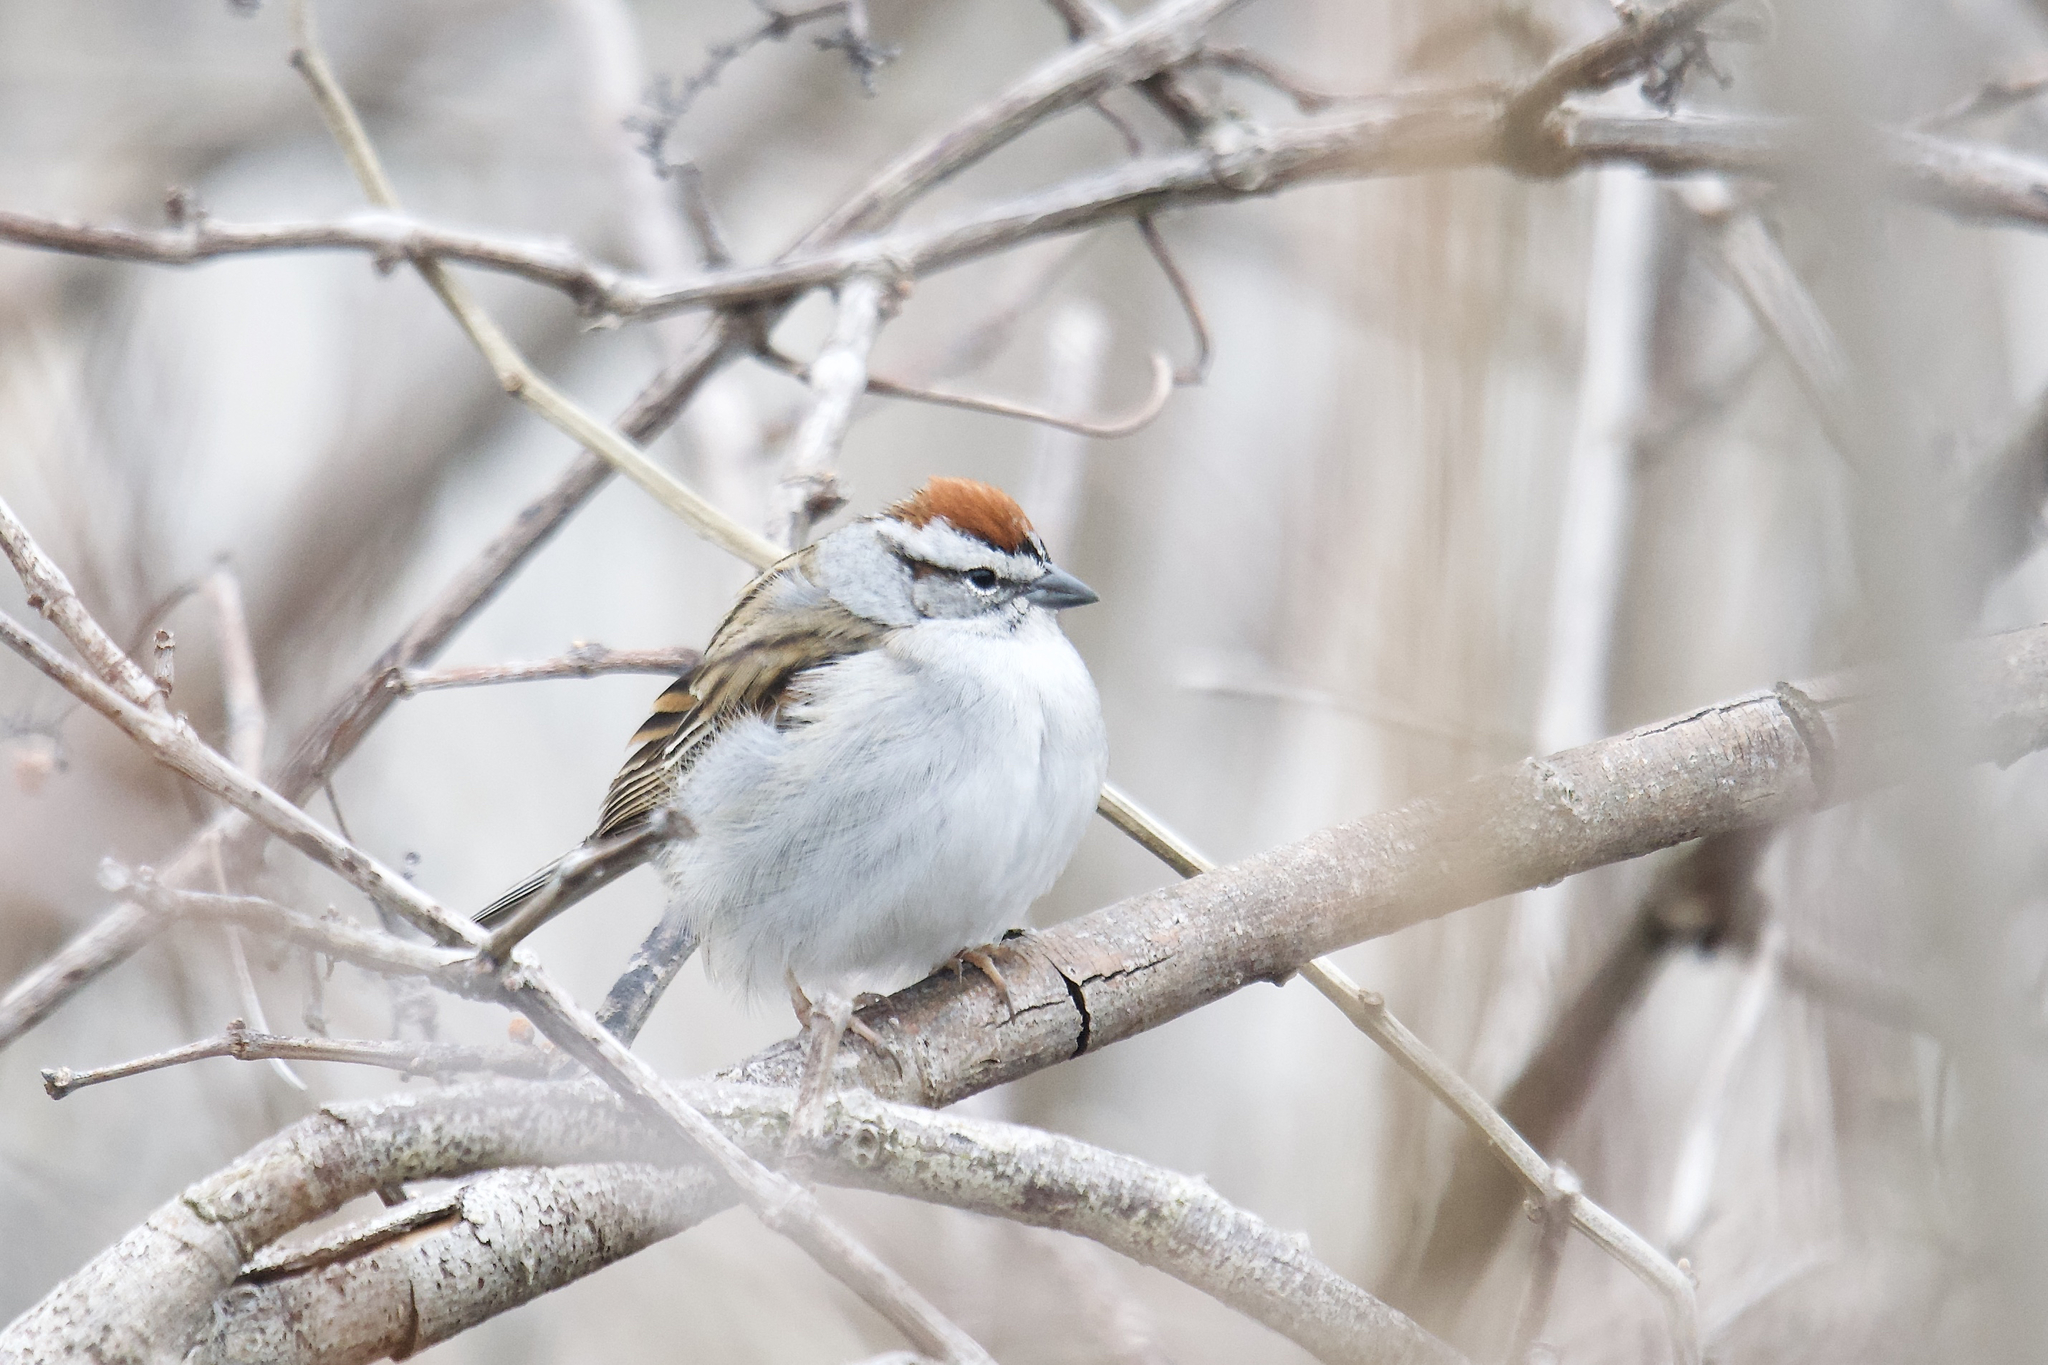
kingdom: Animalia
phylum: Chordata
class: Aves
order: Passeriformes
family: Passerellidae
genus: Spizella
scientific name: Spizella passerina
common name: Chipping sparrow
